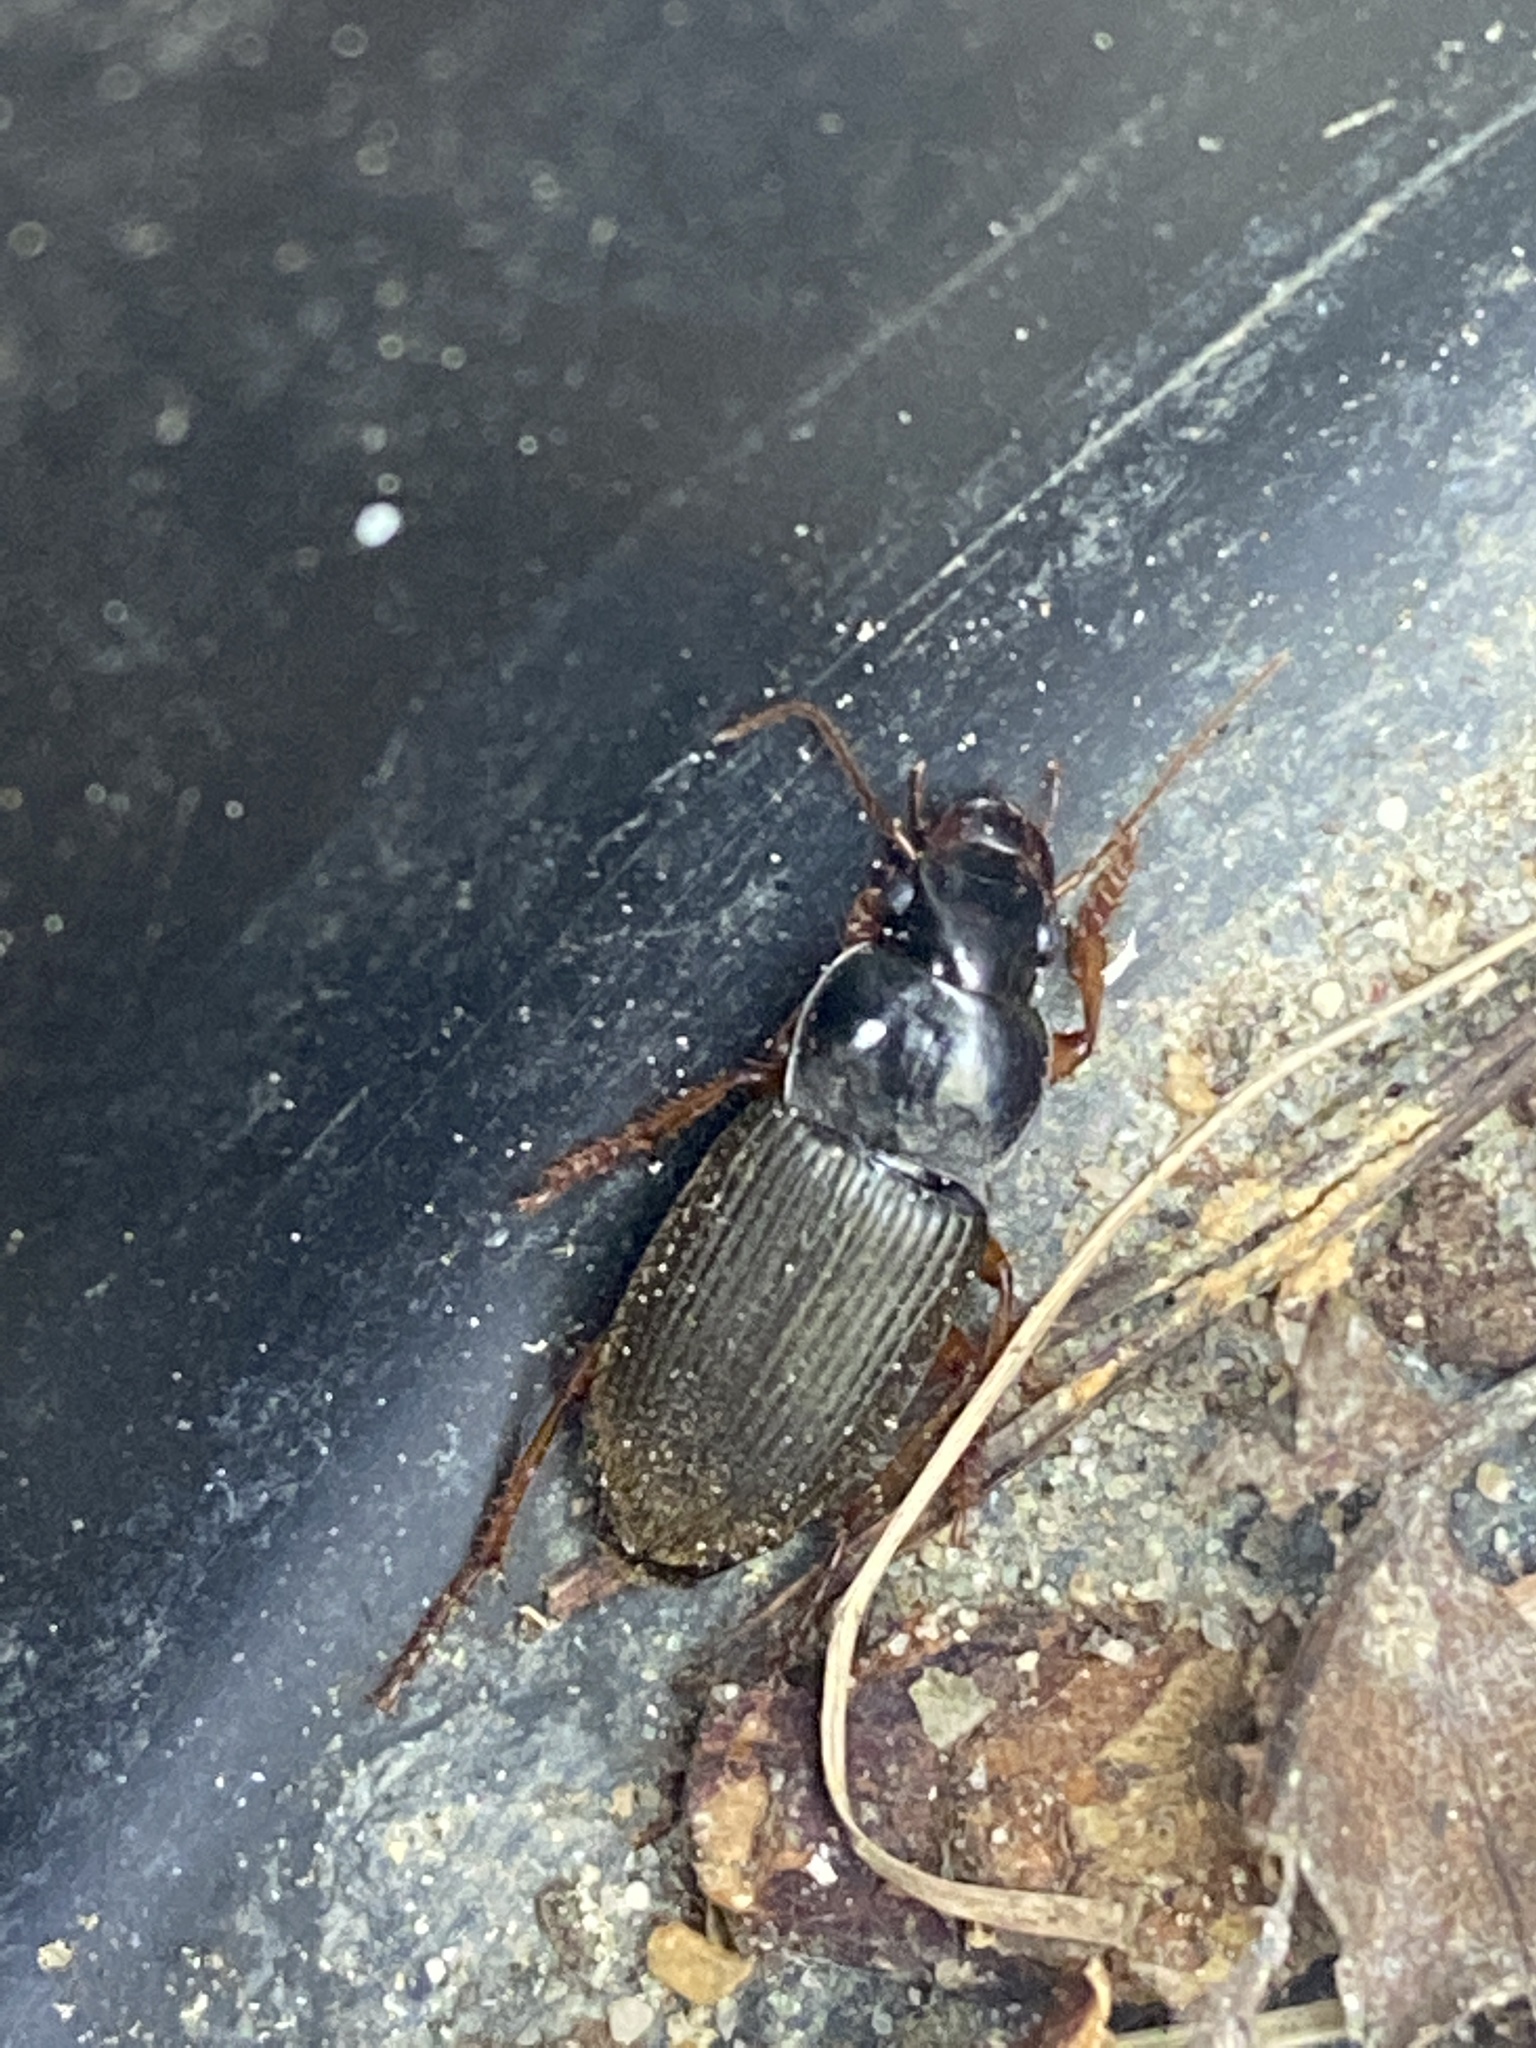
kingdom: Animalia
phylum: Arthropoda
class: Insecta
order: Coleoptera
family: Carabidae
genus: Harpalus
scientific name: Harpalus rufipes
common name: Strawberry harp ground beetle
